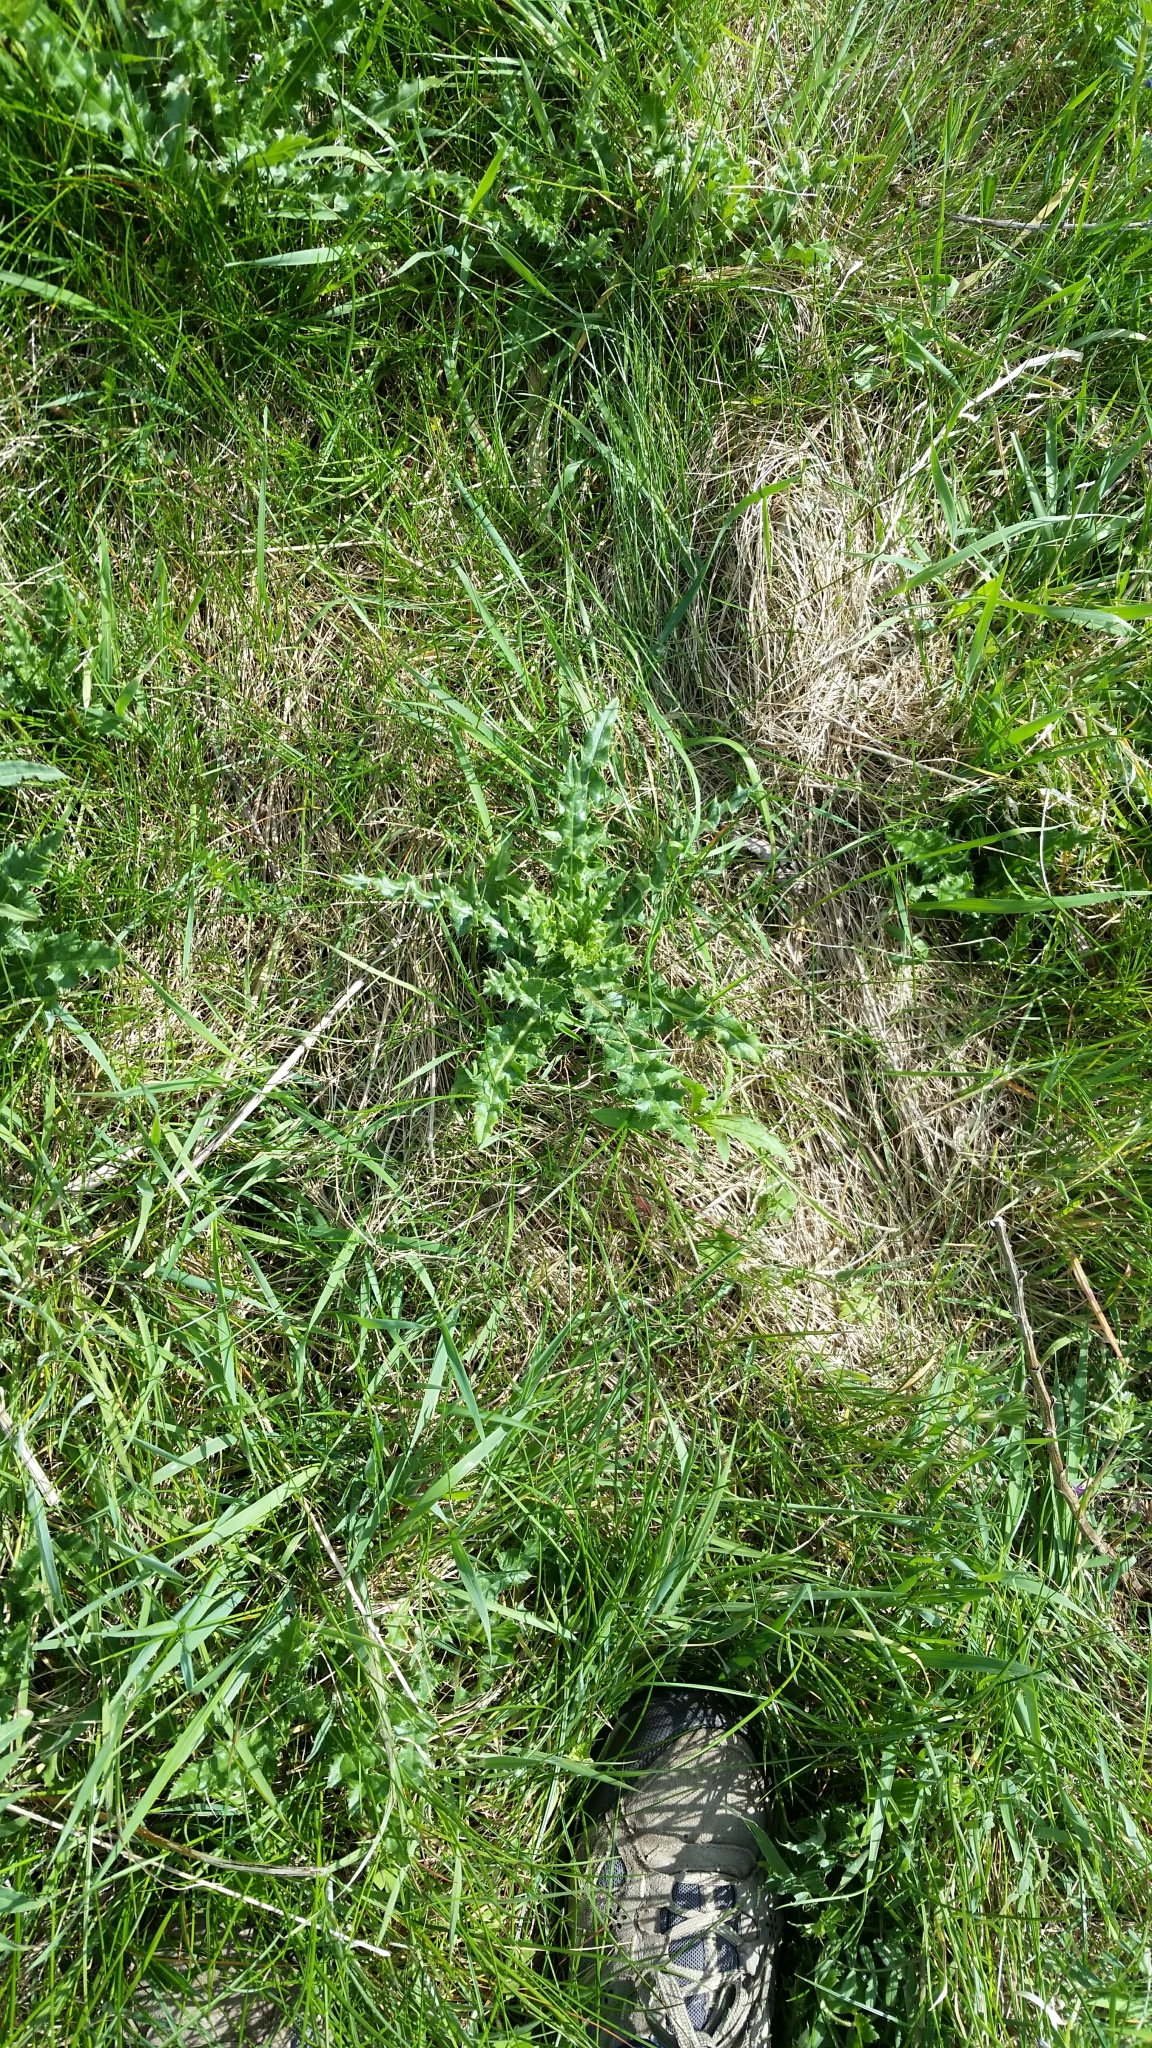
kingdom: Plantae
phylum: Tracheophyta
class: Magnoliopsida
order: Asterales
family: Asteraceae
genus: Cirsium
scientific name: Cirsium arvense
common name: Creeping thistle
